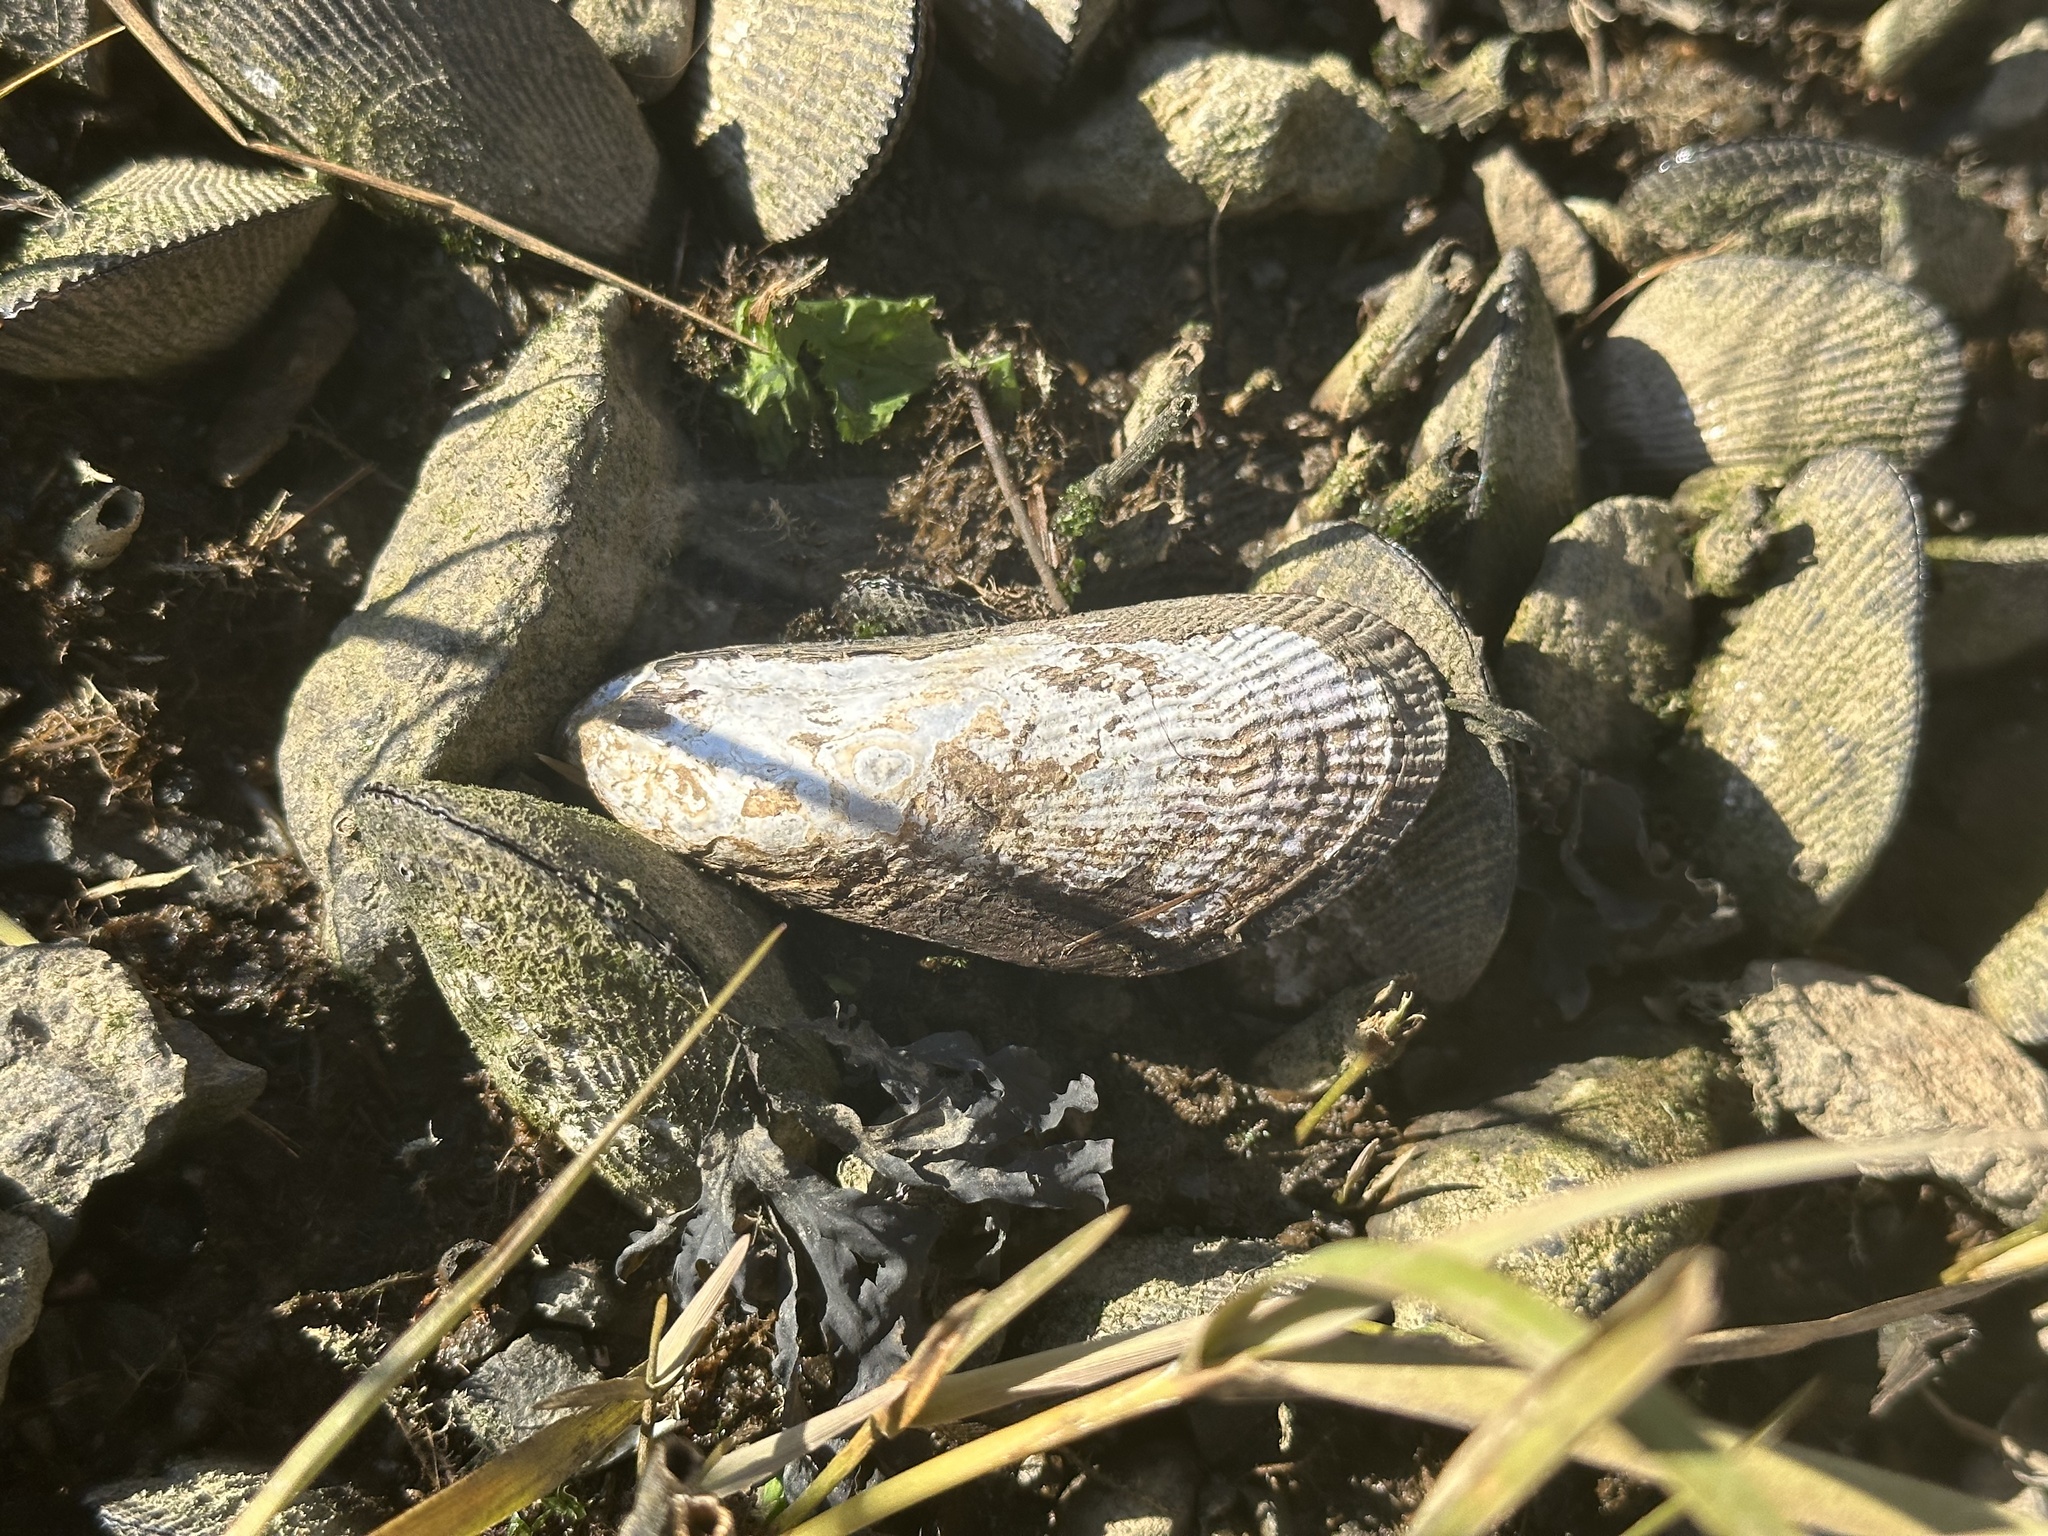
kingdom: Animalia
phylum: Mollusca
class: Bivalvia
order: Mytilida
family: Mytilidae
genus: Geukensia
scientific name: Geukensia demissa
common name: Ribbed mussel
